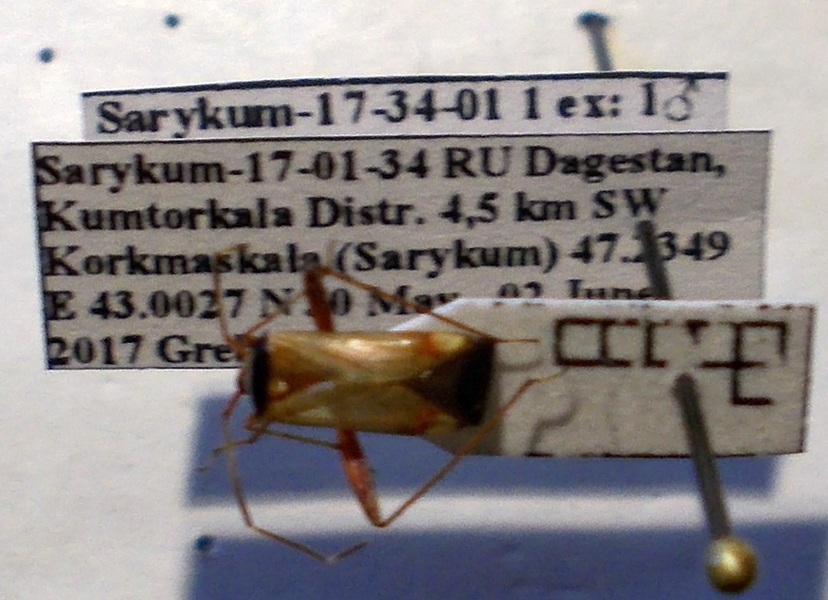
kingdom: Animalia
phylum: Arthropoda
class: Insecta
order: Hemiptera
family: Miridae
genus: Adelphocoris
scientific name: Adelphocoris vandalicus
